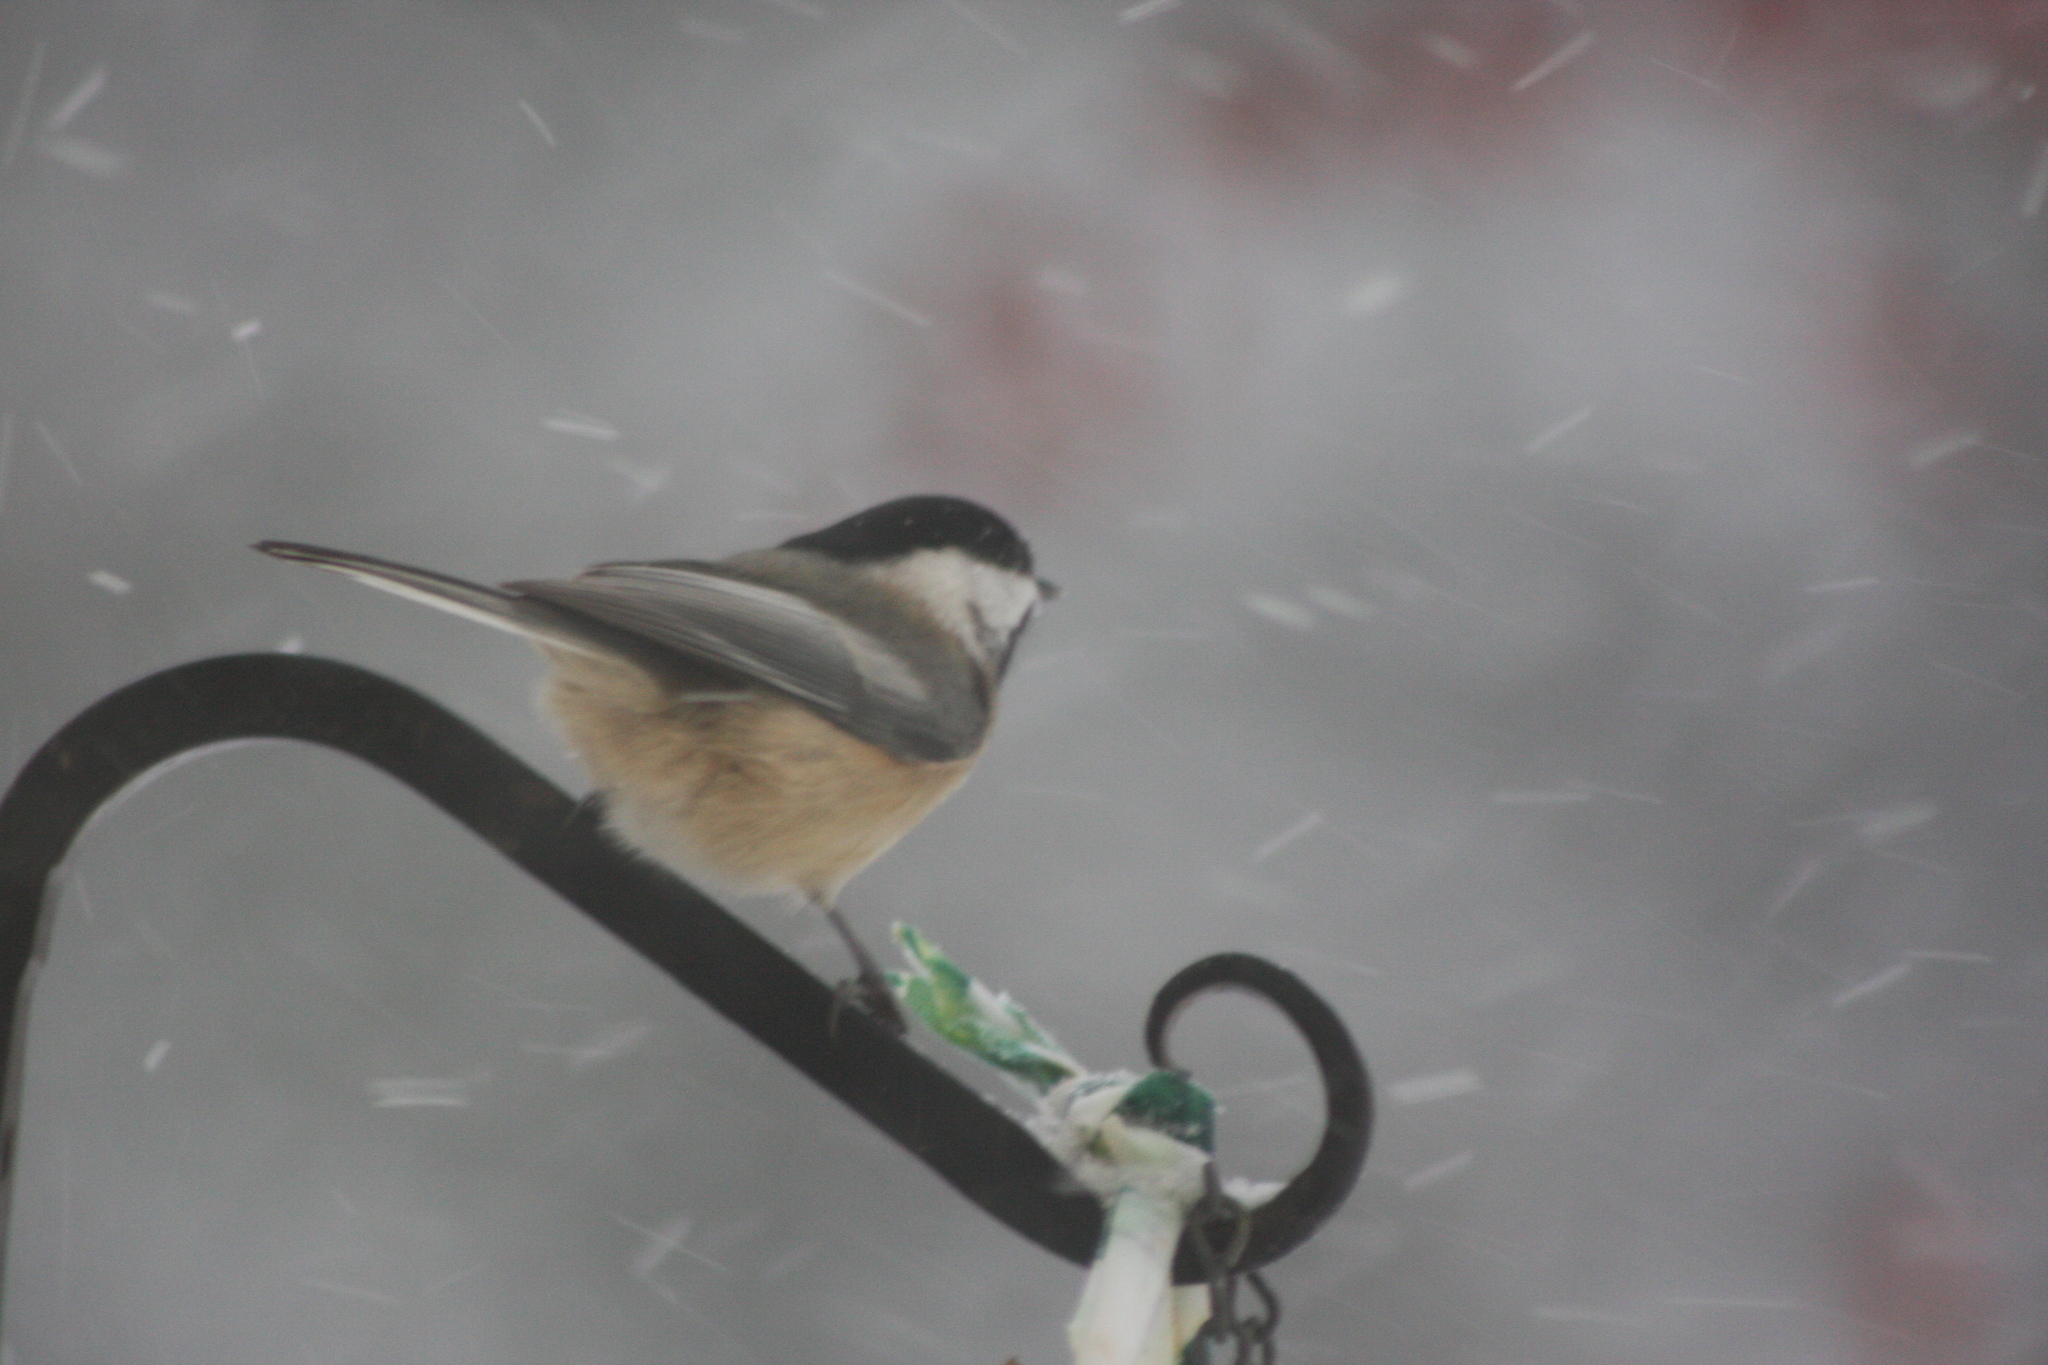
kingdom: Animalia
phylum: Chordata
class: Aves
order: Passeriformes
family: Paridae
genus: Poecile
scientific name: Poecile atricapillus
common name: Black-capped chickadee
